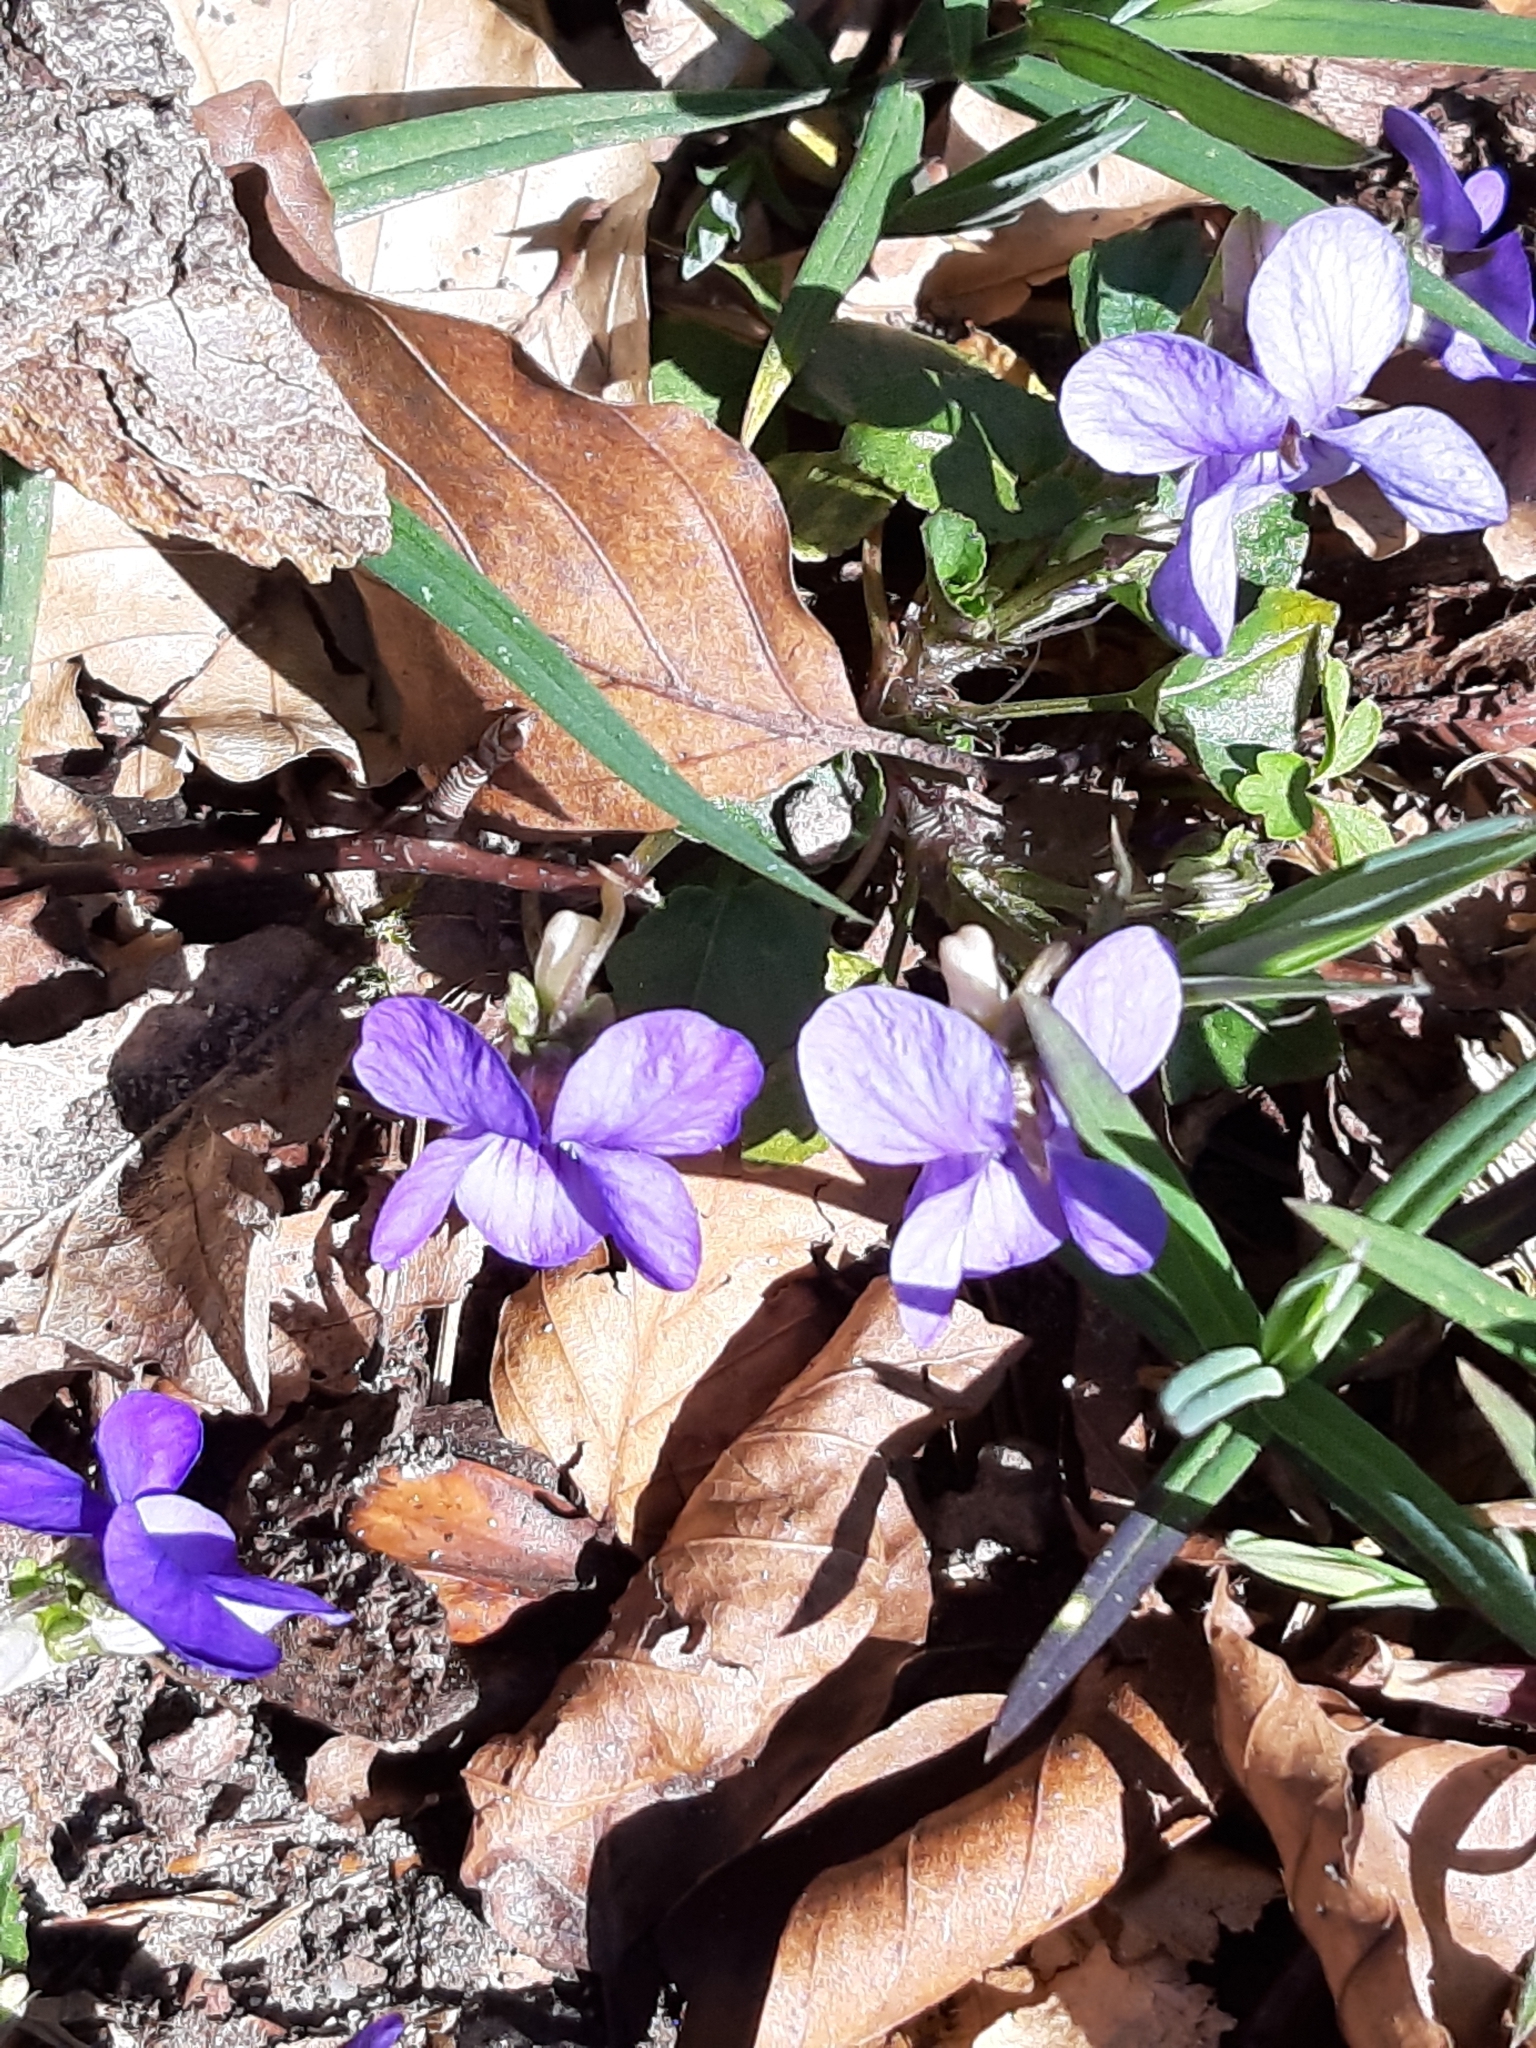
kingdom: Plantae
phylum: Tracheophyta
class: Magnoliopsida
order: Malpighiales
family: Violaceae
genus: Viola
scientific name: Viola riviniana
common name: Common dog-violet
